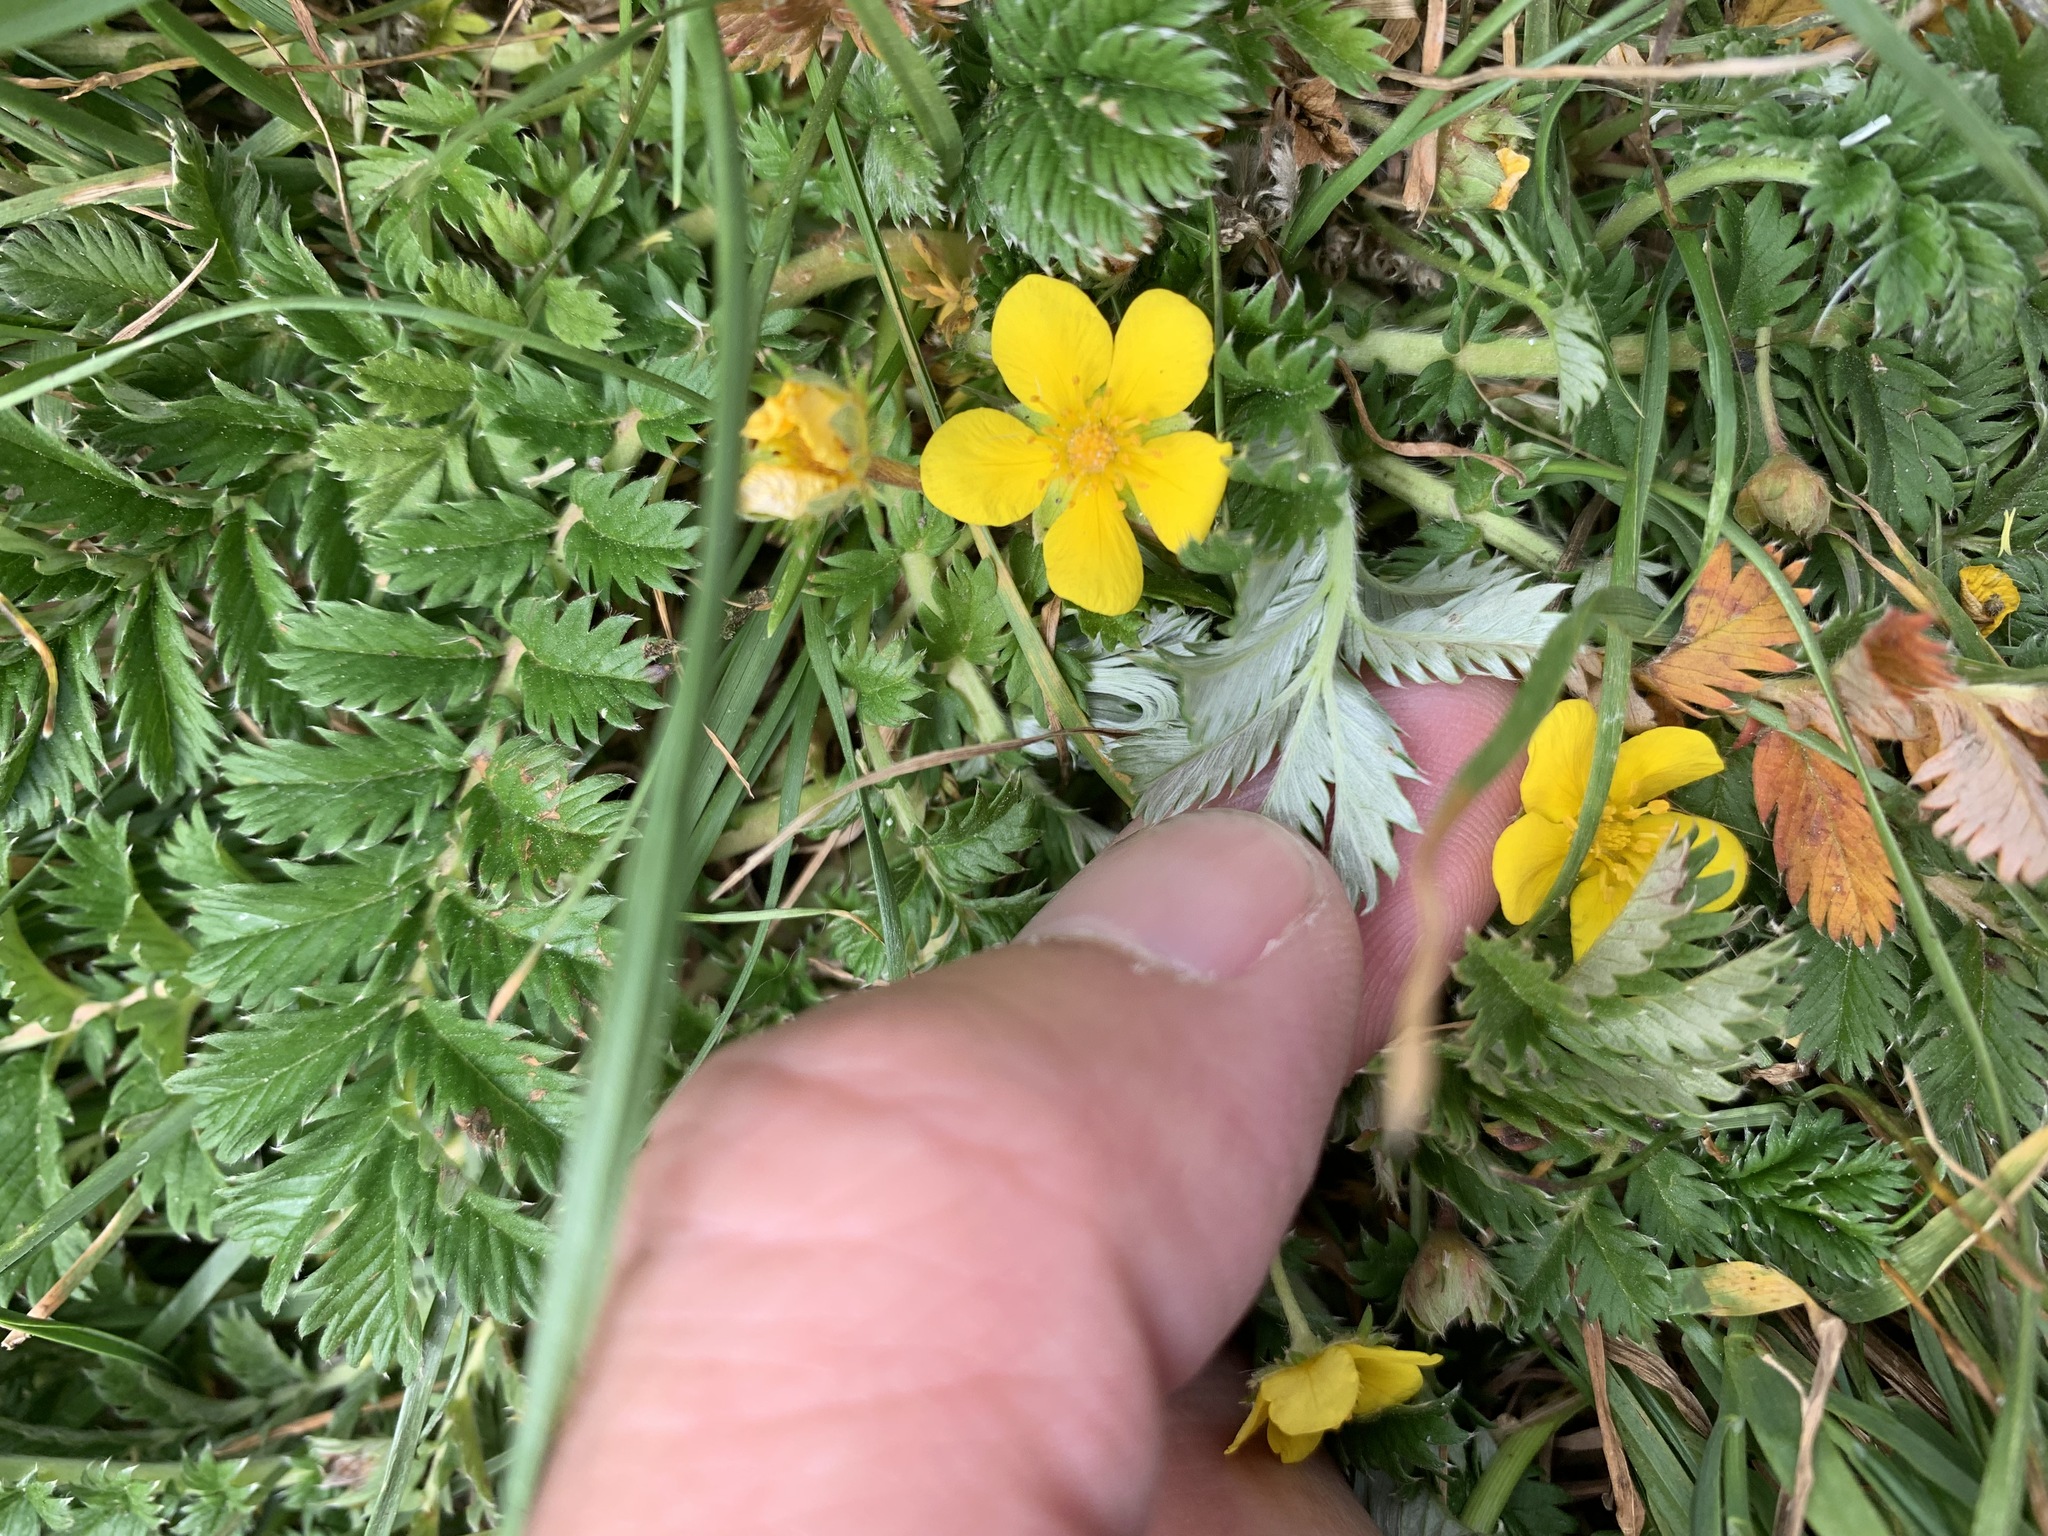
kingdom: Plantae
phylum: Tracheophyta
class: Magnoliopsida
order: Rosales
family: Rosaceae
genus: Argentina
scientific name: Argentina anserina
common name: Common silverweed
